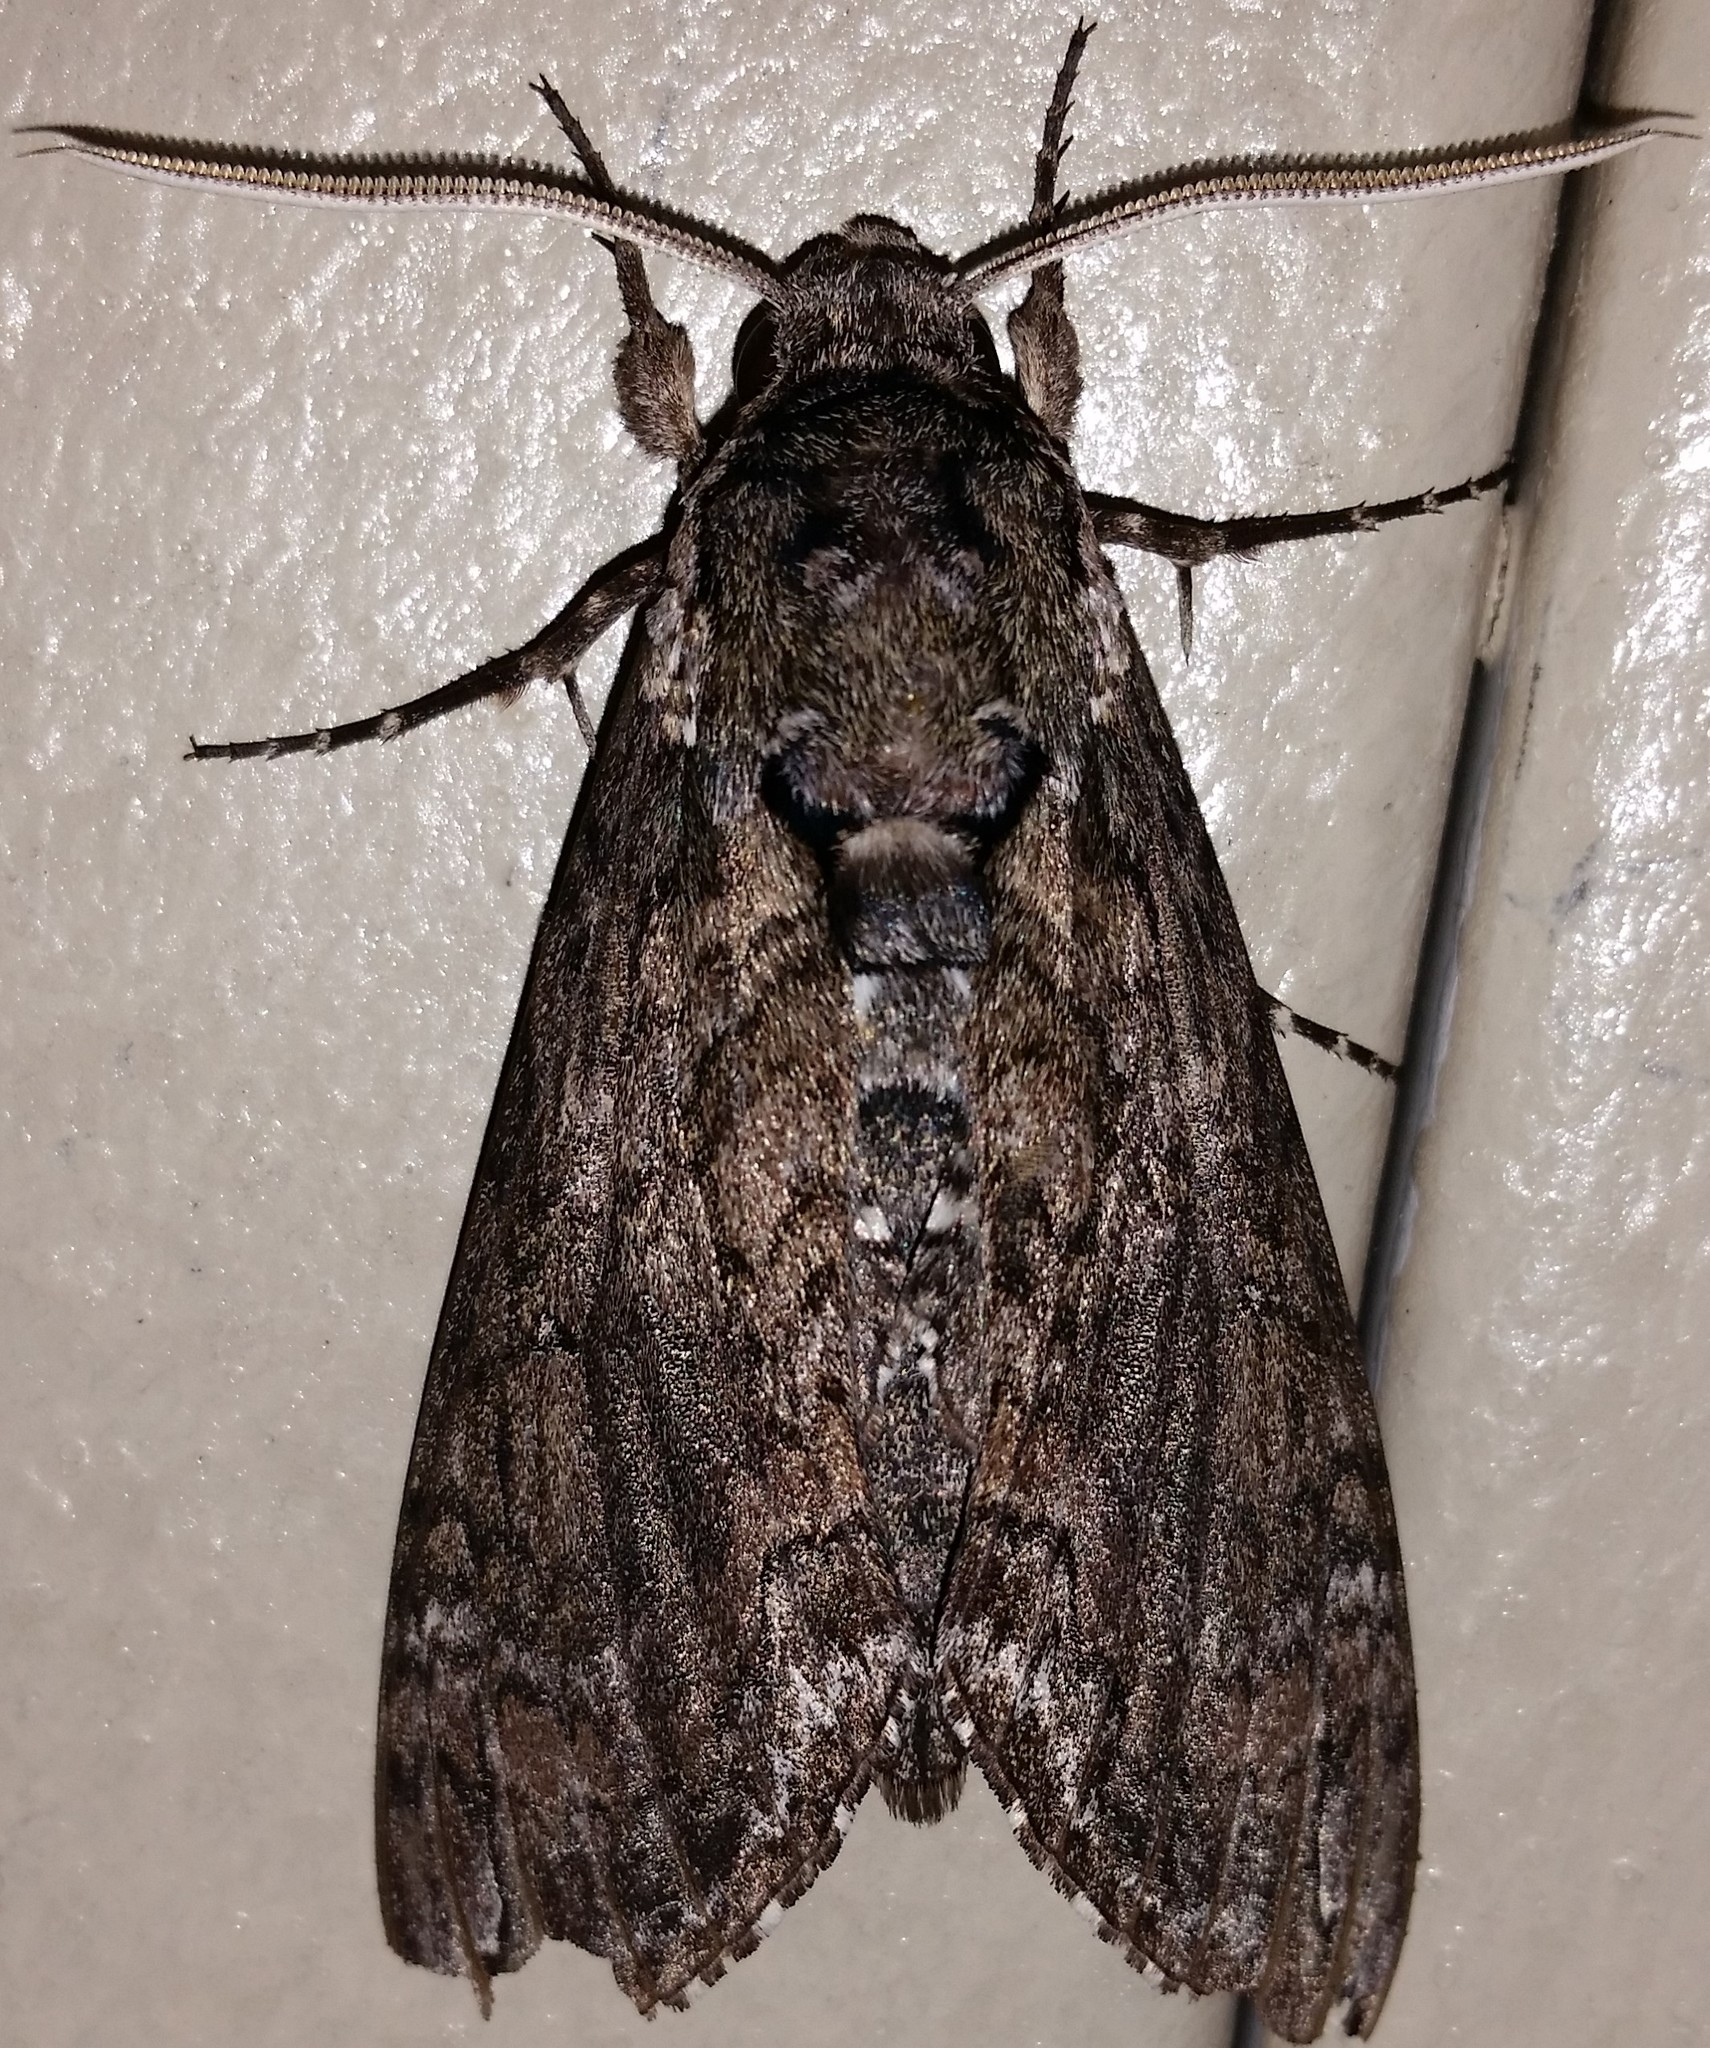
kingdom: Animalia
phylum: Arthropoda
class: Insecta
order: Lepidoptera
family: Sphingidae
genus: Manduca
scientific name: Manduca sexta
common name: Carolina sphinx
